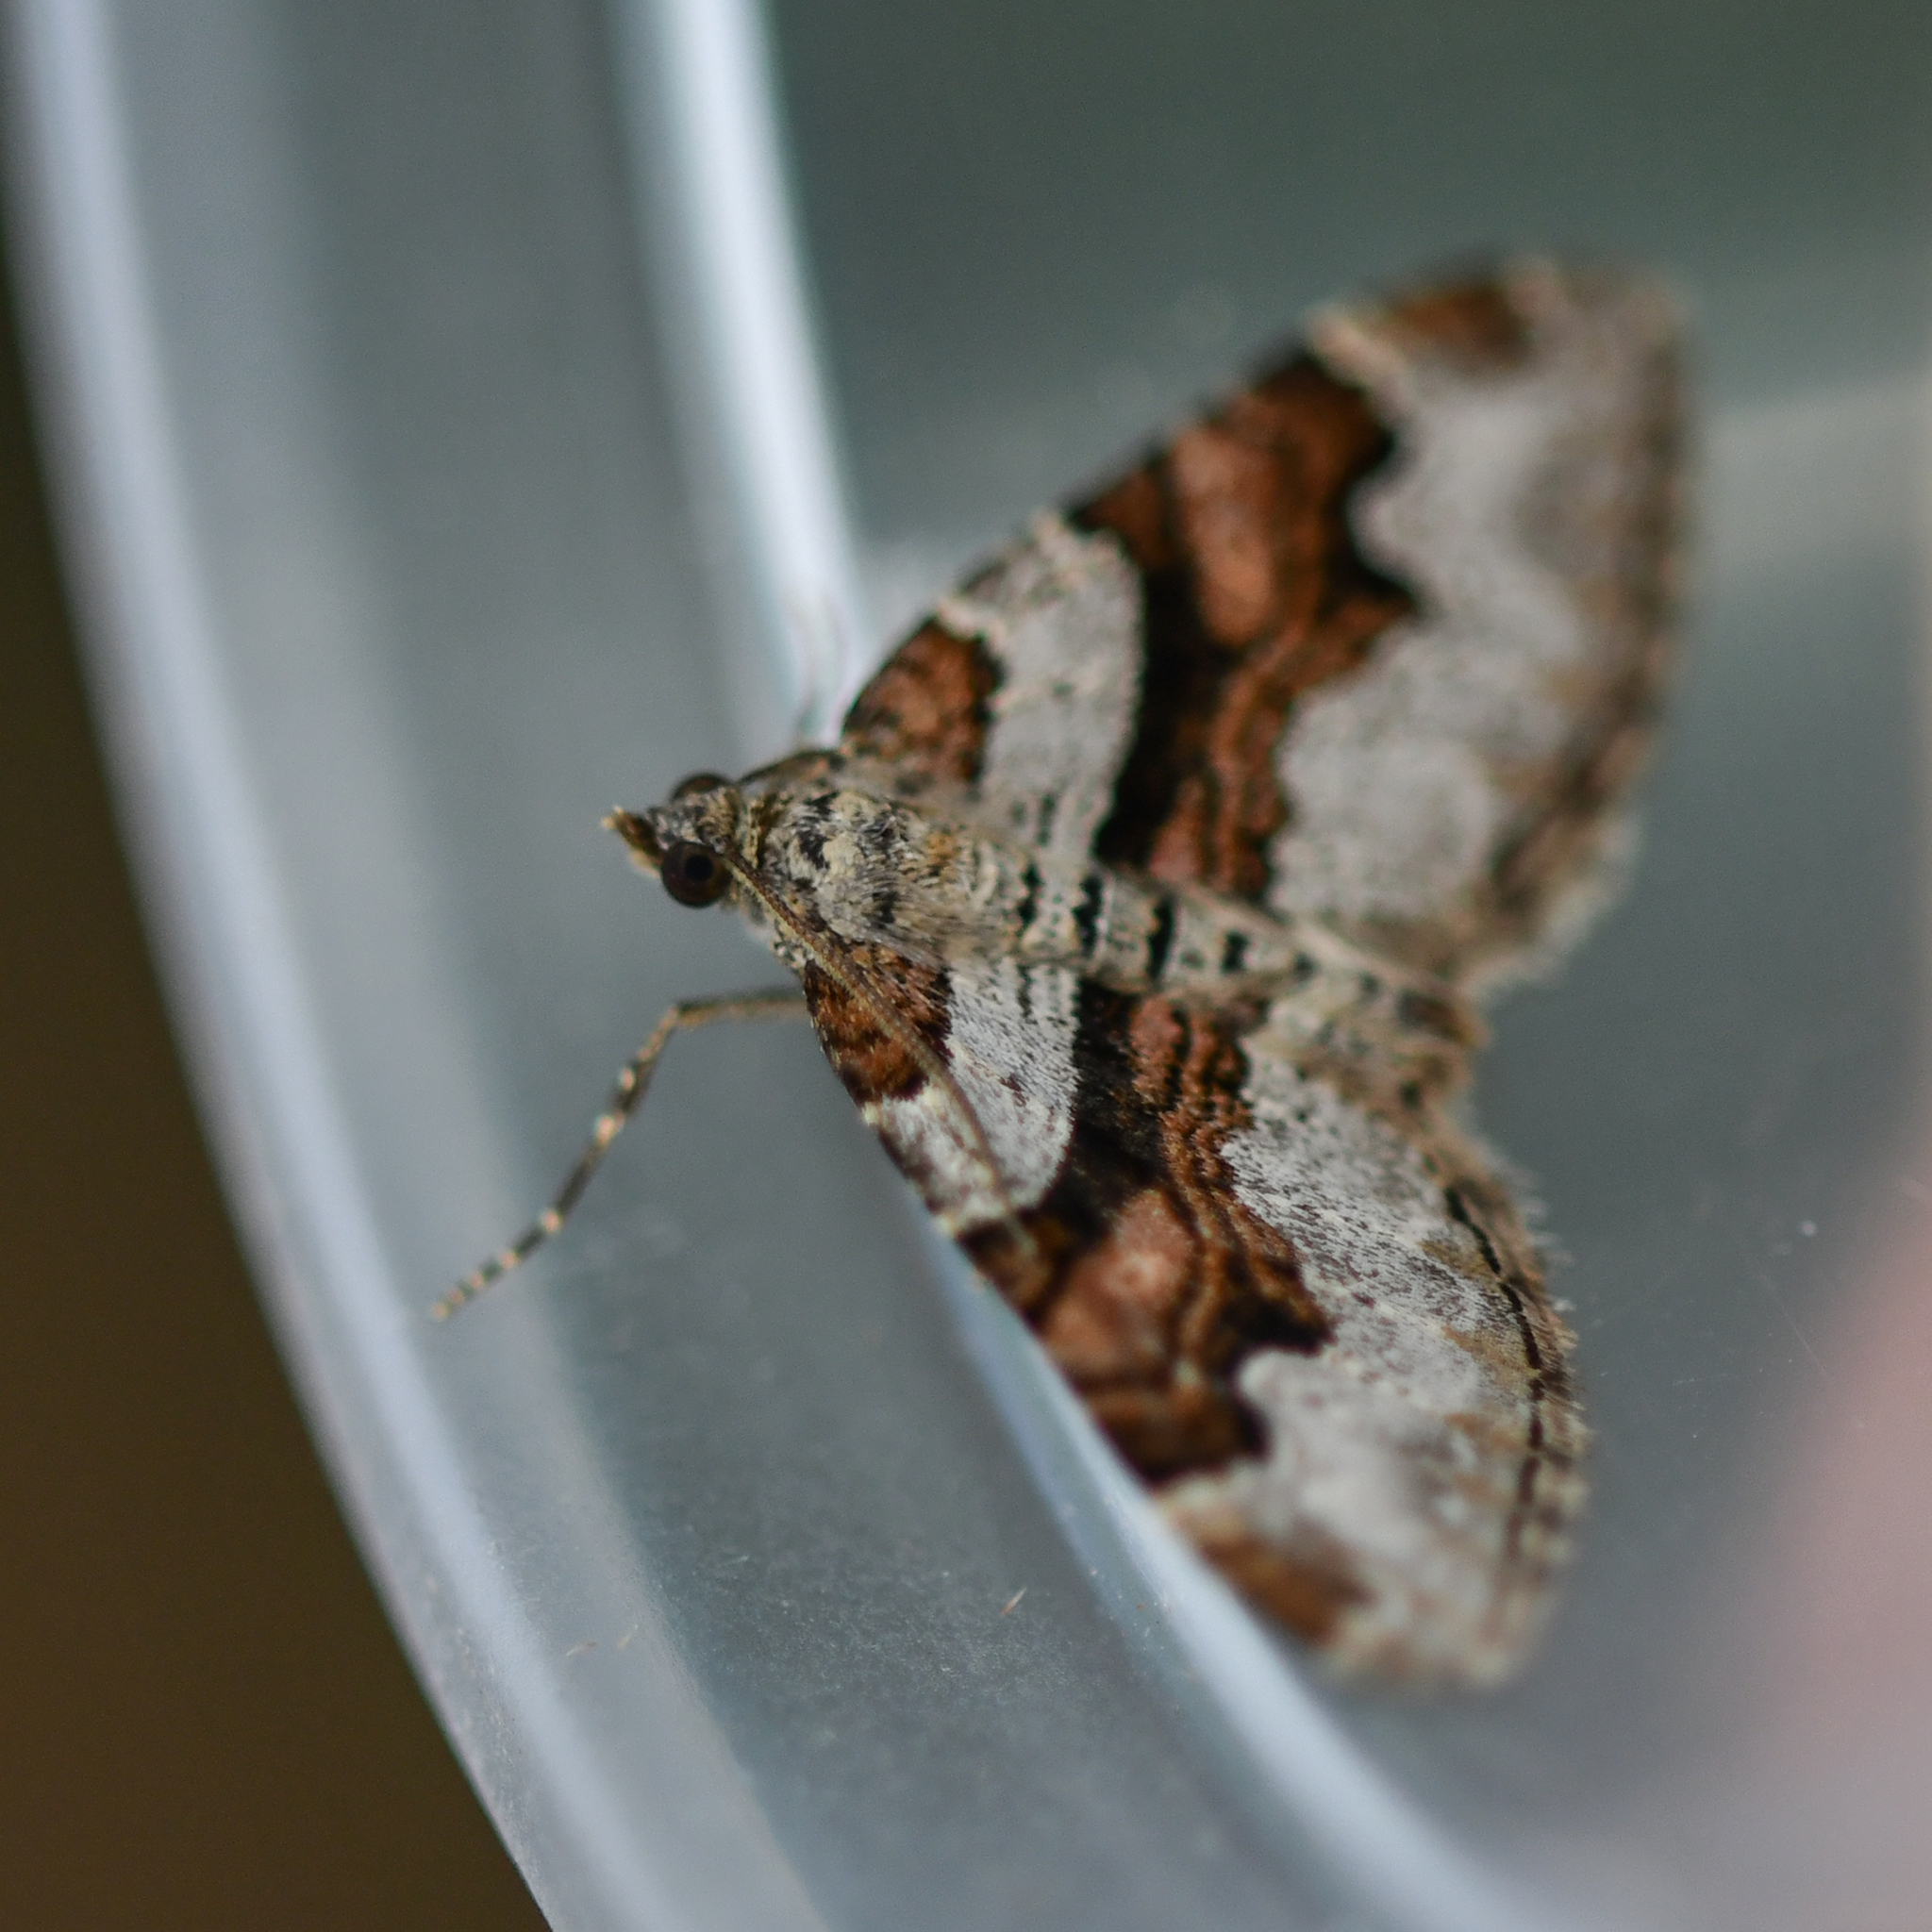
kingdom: Animalia
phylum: Arthropoda
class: Insecta
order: Lepidoptera
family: Geometridae
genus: Xanthorhoe
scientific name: Xanthorhoe designata
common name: Flame carpet
